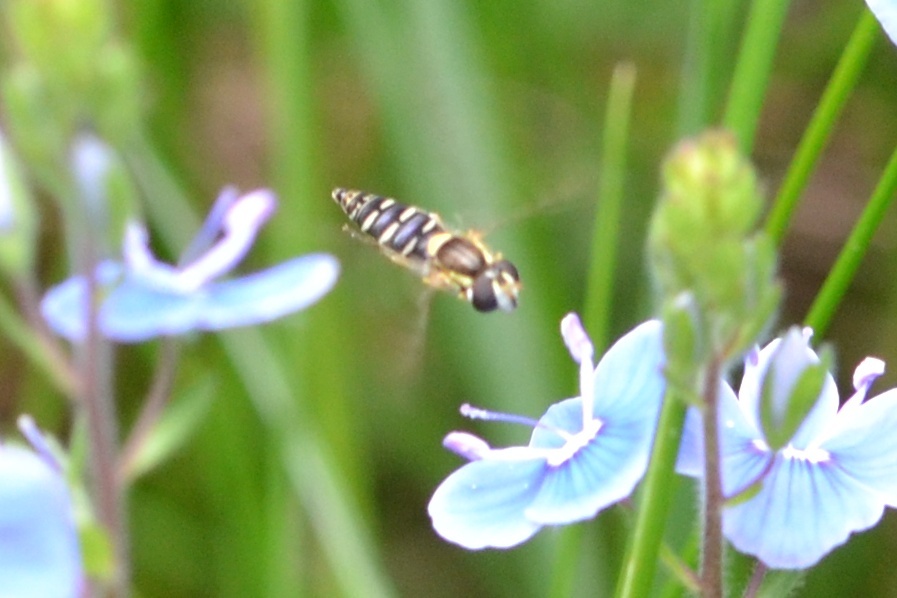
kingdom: Animalia
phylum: Arthropoda
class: Insecta
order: Diptera
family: Syrphidae
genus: Sphaerophoria
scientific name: Sphaerophoria
